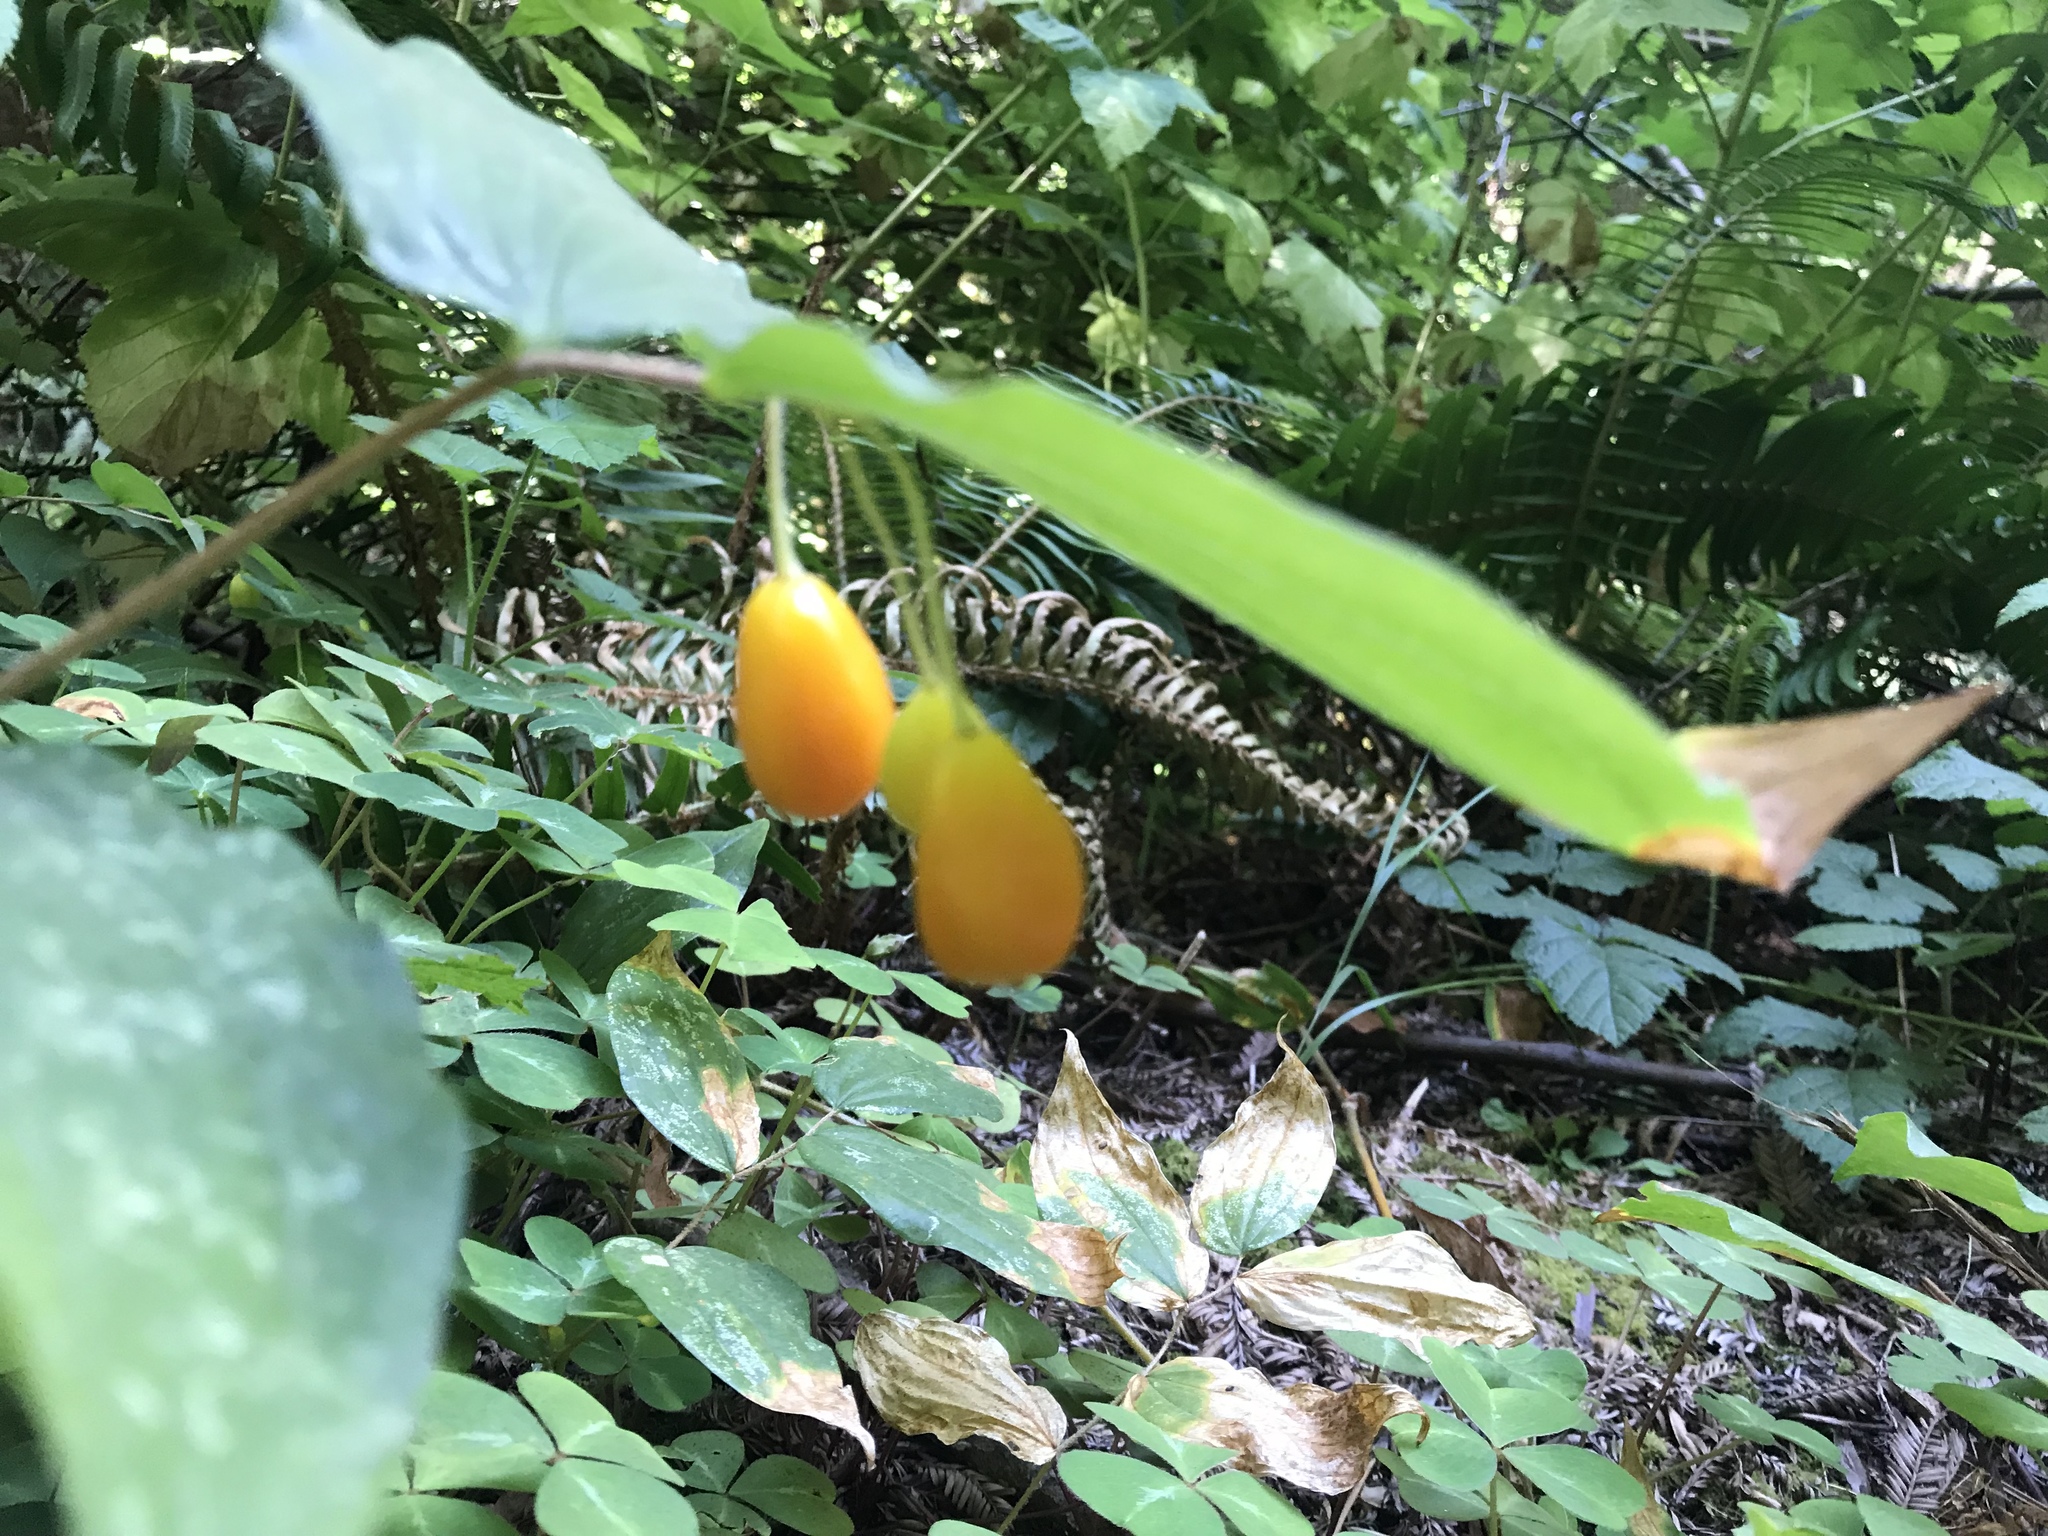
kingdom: Plantae
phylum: Tracheophyta
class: Liliopsida
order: Liliales
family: Liliaceae
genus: Prosartes
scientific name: Prosartes smithii
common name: Fairy-lantern
